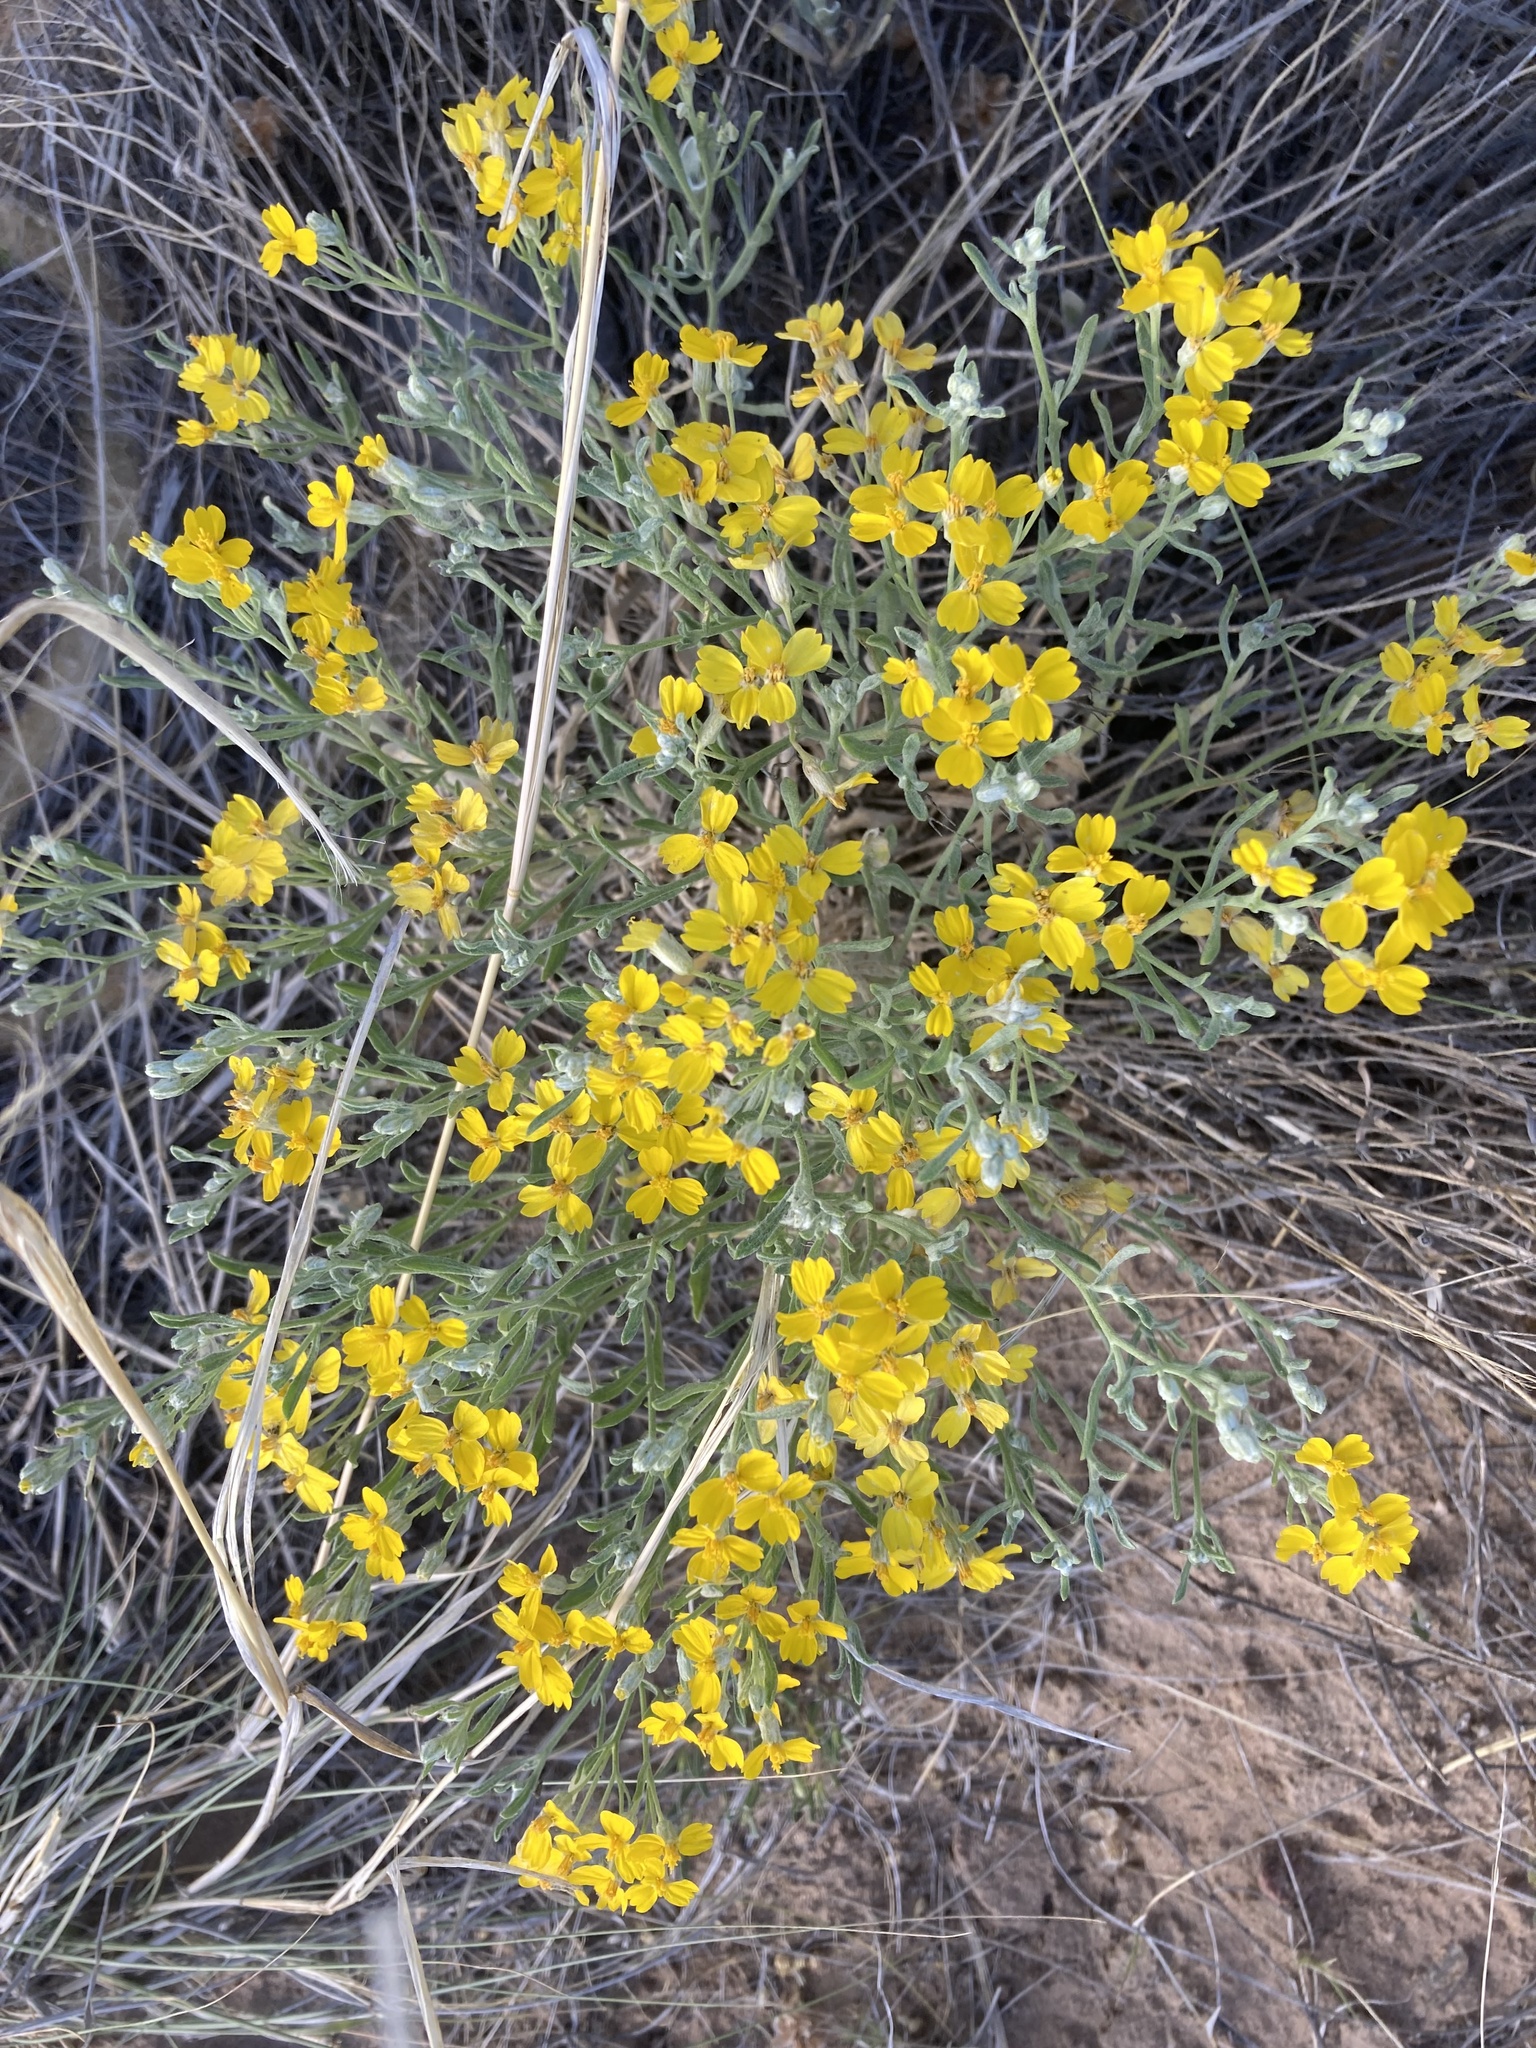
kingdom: Plantae
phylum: Tracheophyta
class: Magnoliopsida
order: Asterales
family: Asteraceae
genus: Psilostrophe
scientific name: Psilostrophe tagetina
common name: Marigold paper-flower
